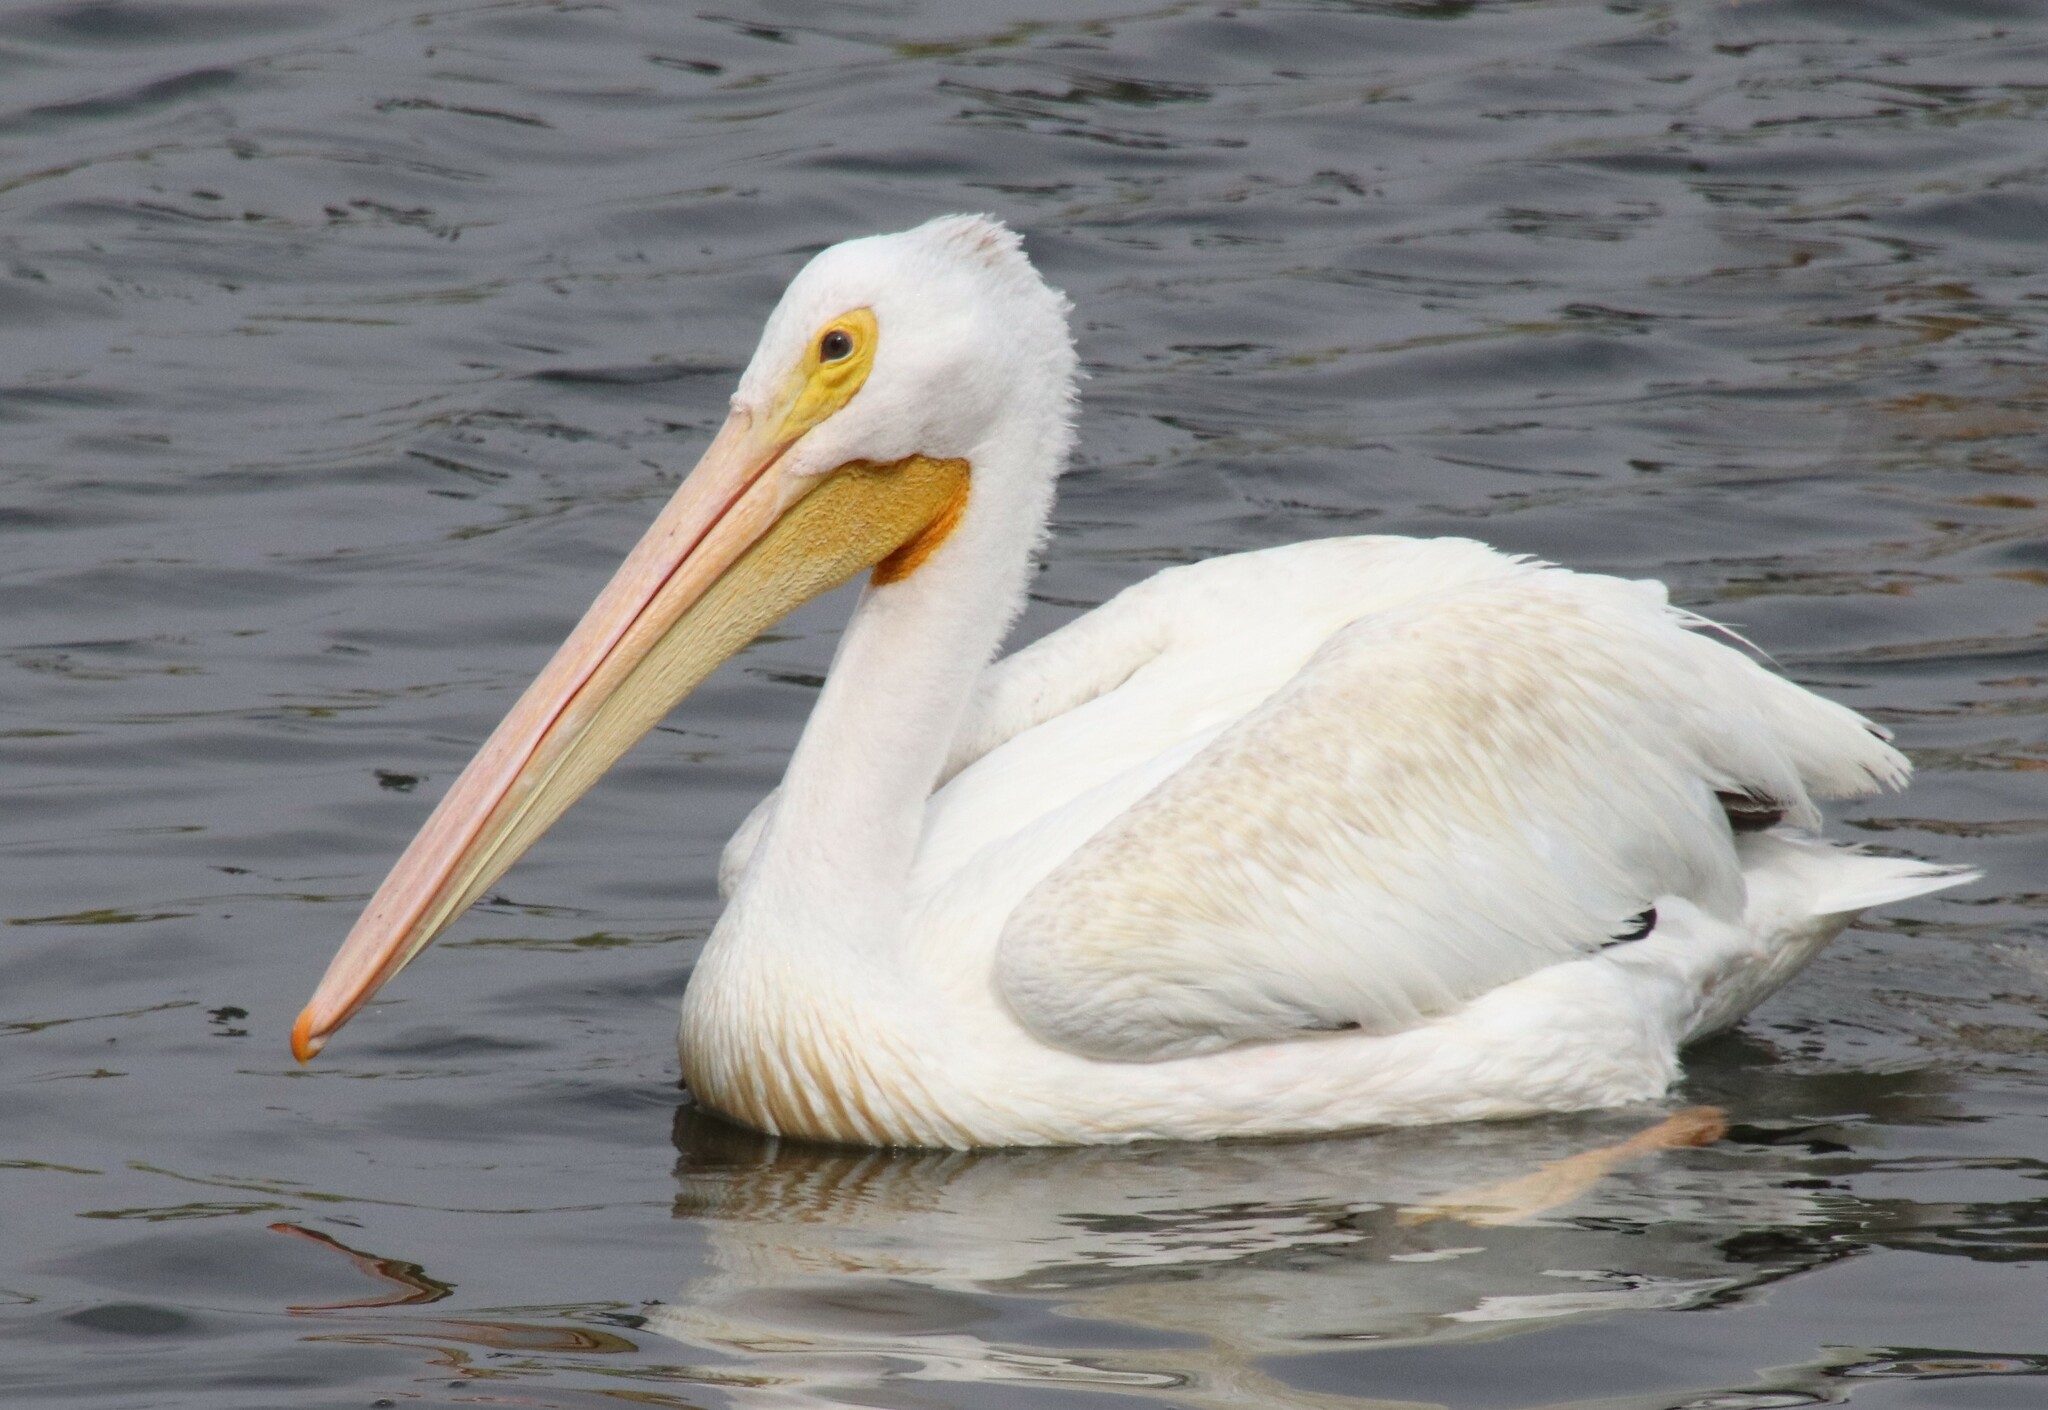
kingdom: Animalia
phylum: Chordata
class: Aves
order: Pelecaniformes
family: Pelecanidae
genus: Pelecanus
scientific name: Pelecanus erythrorhynchos
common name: American white pelican
